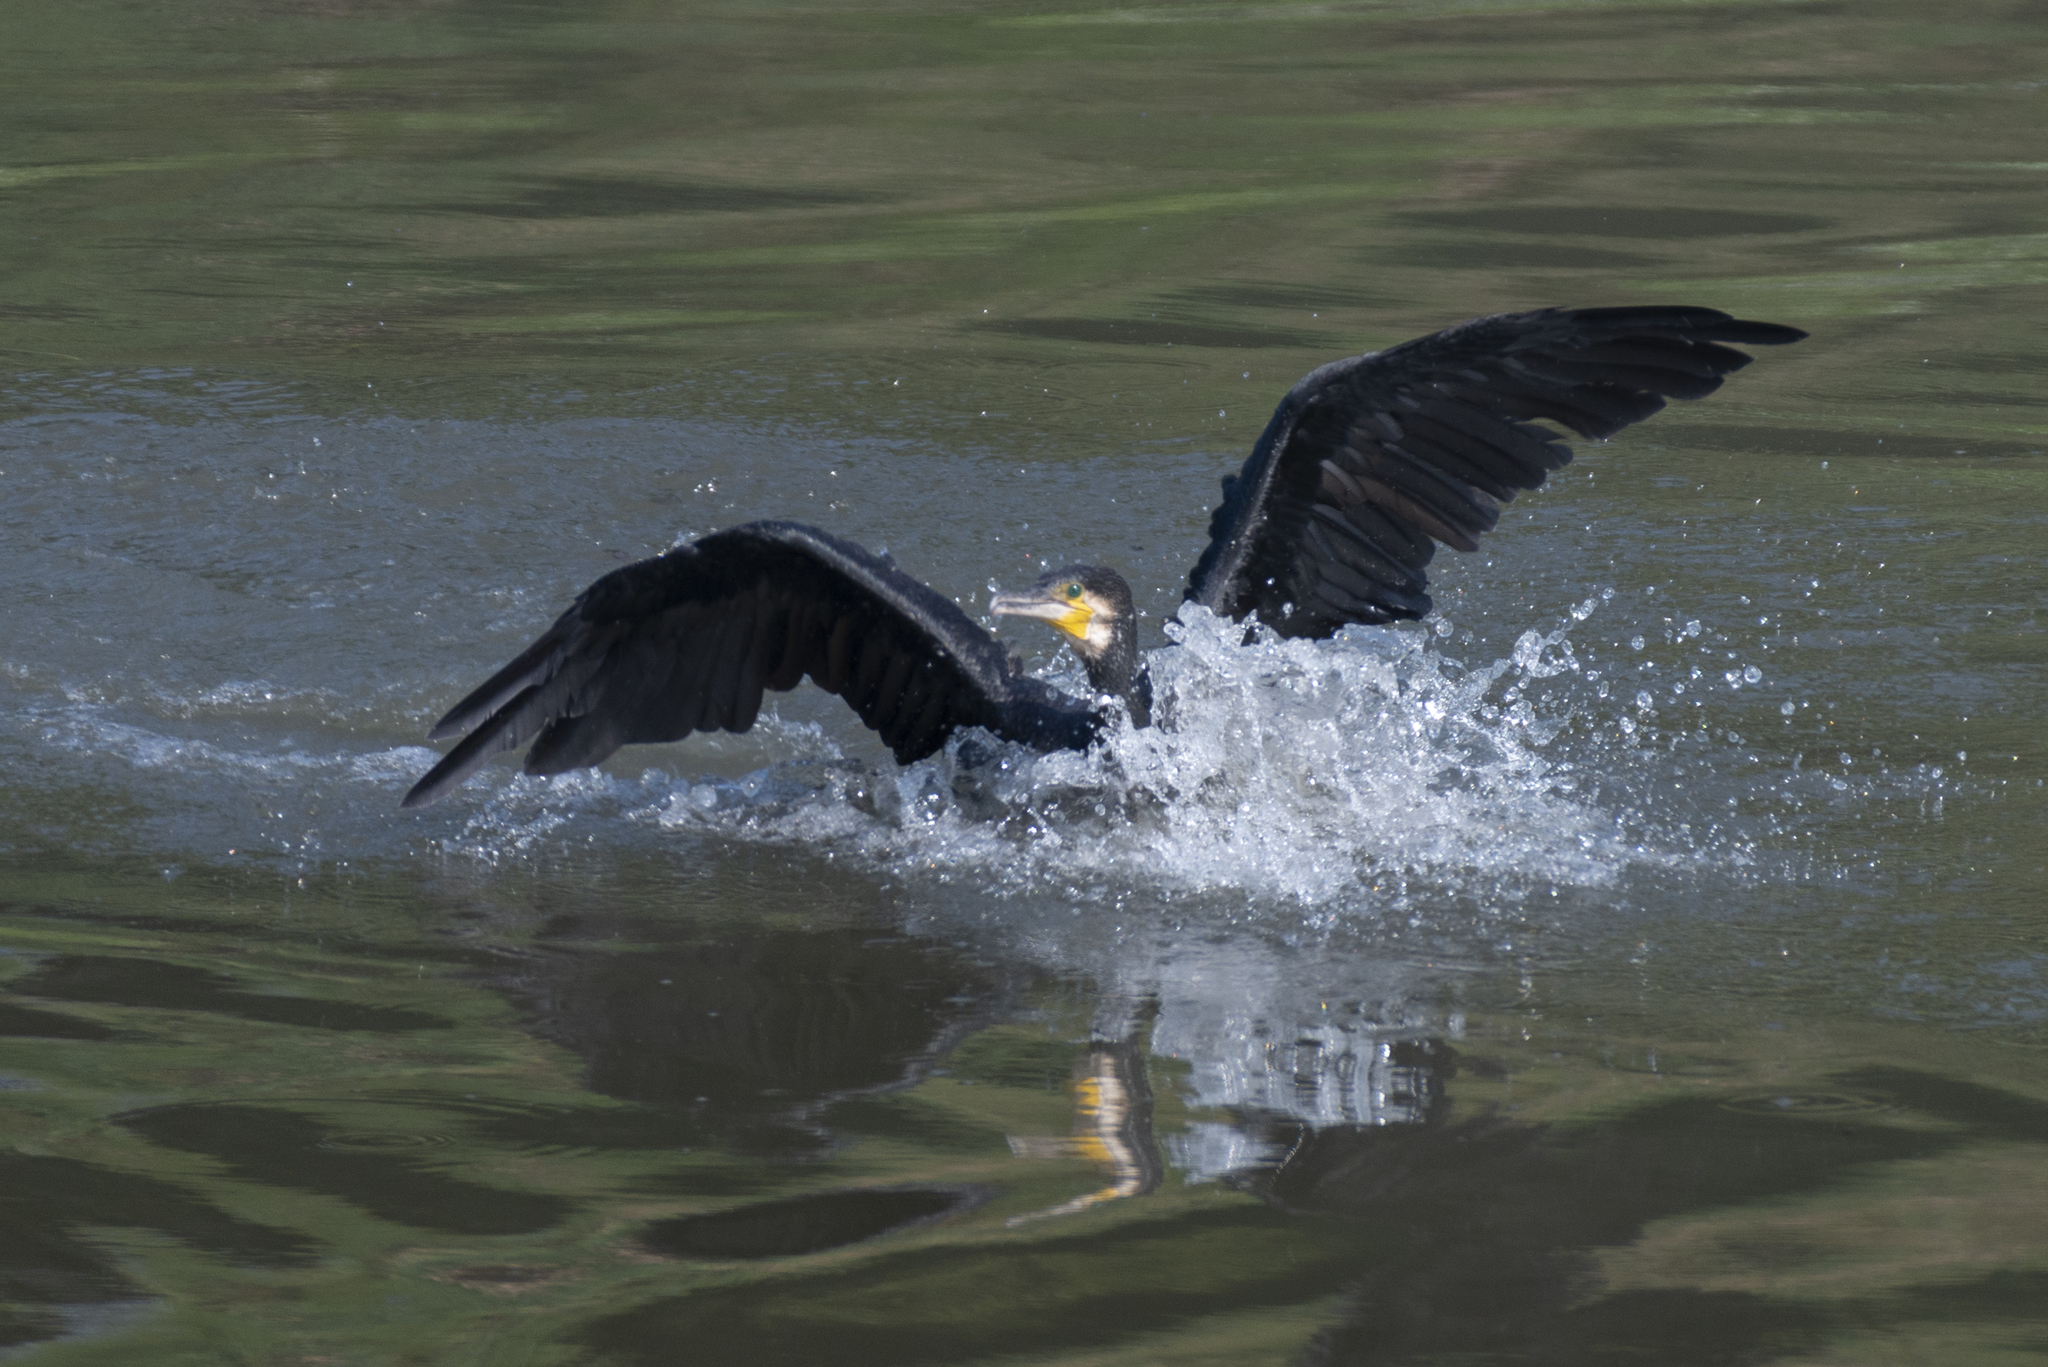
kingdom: Animalia
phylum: Chordata
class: Aves
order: Suliformes
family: Phalacrocoracidae
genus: Phalacrocorax
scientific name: Phalacrocorax carbo
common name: Great cormorant
